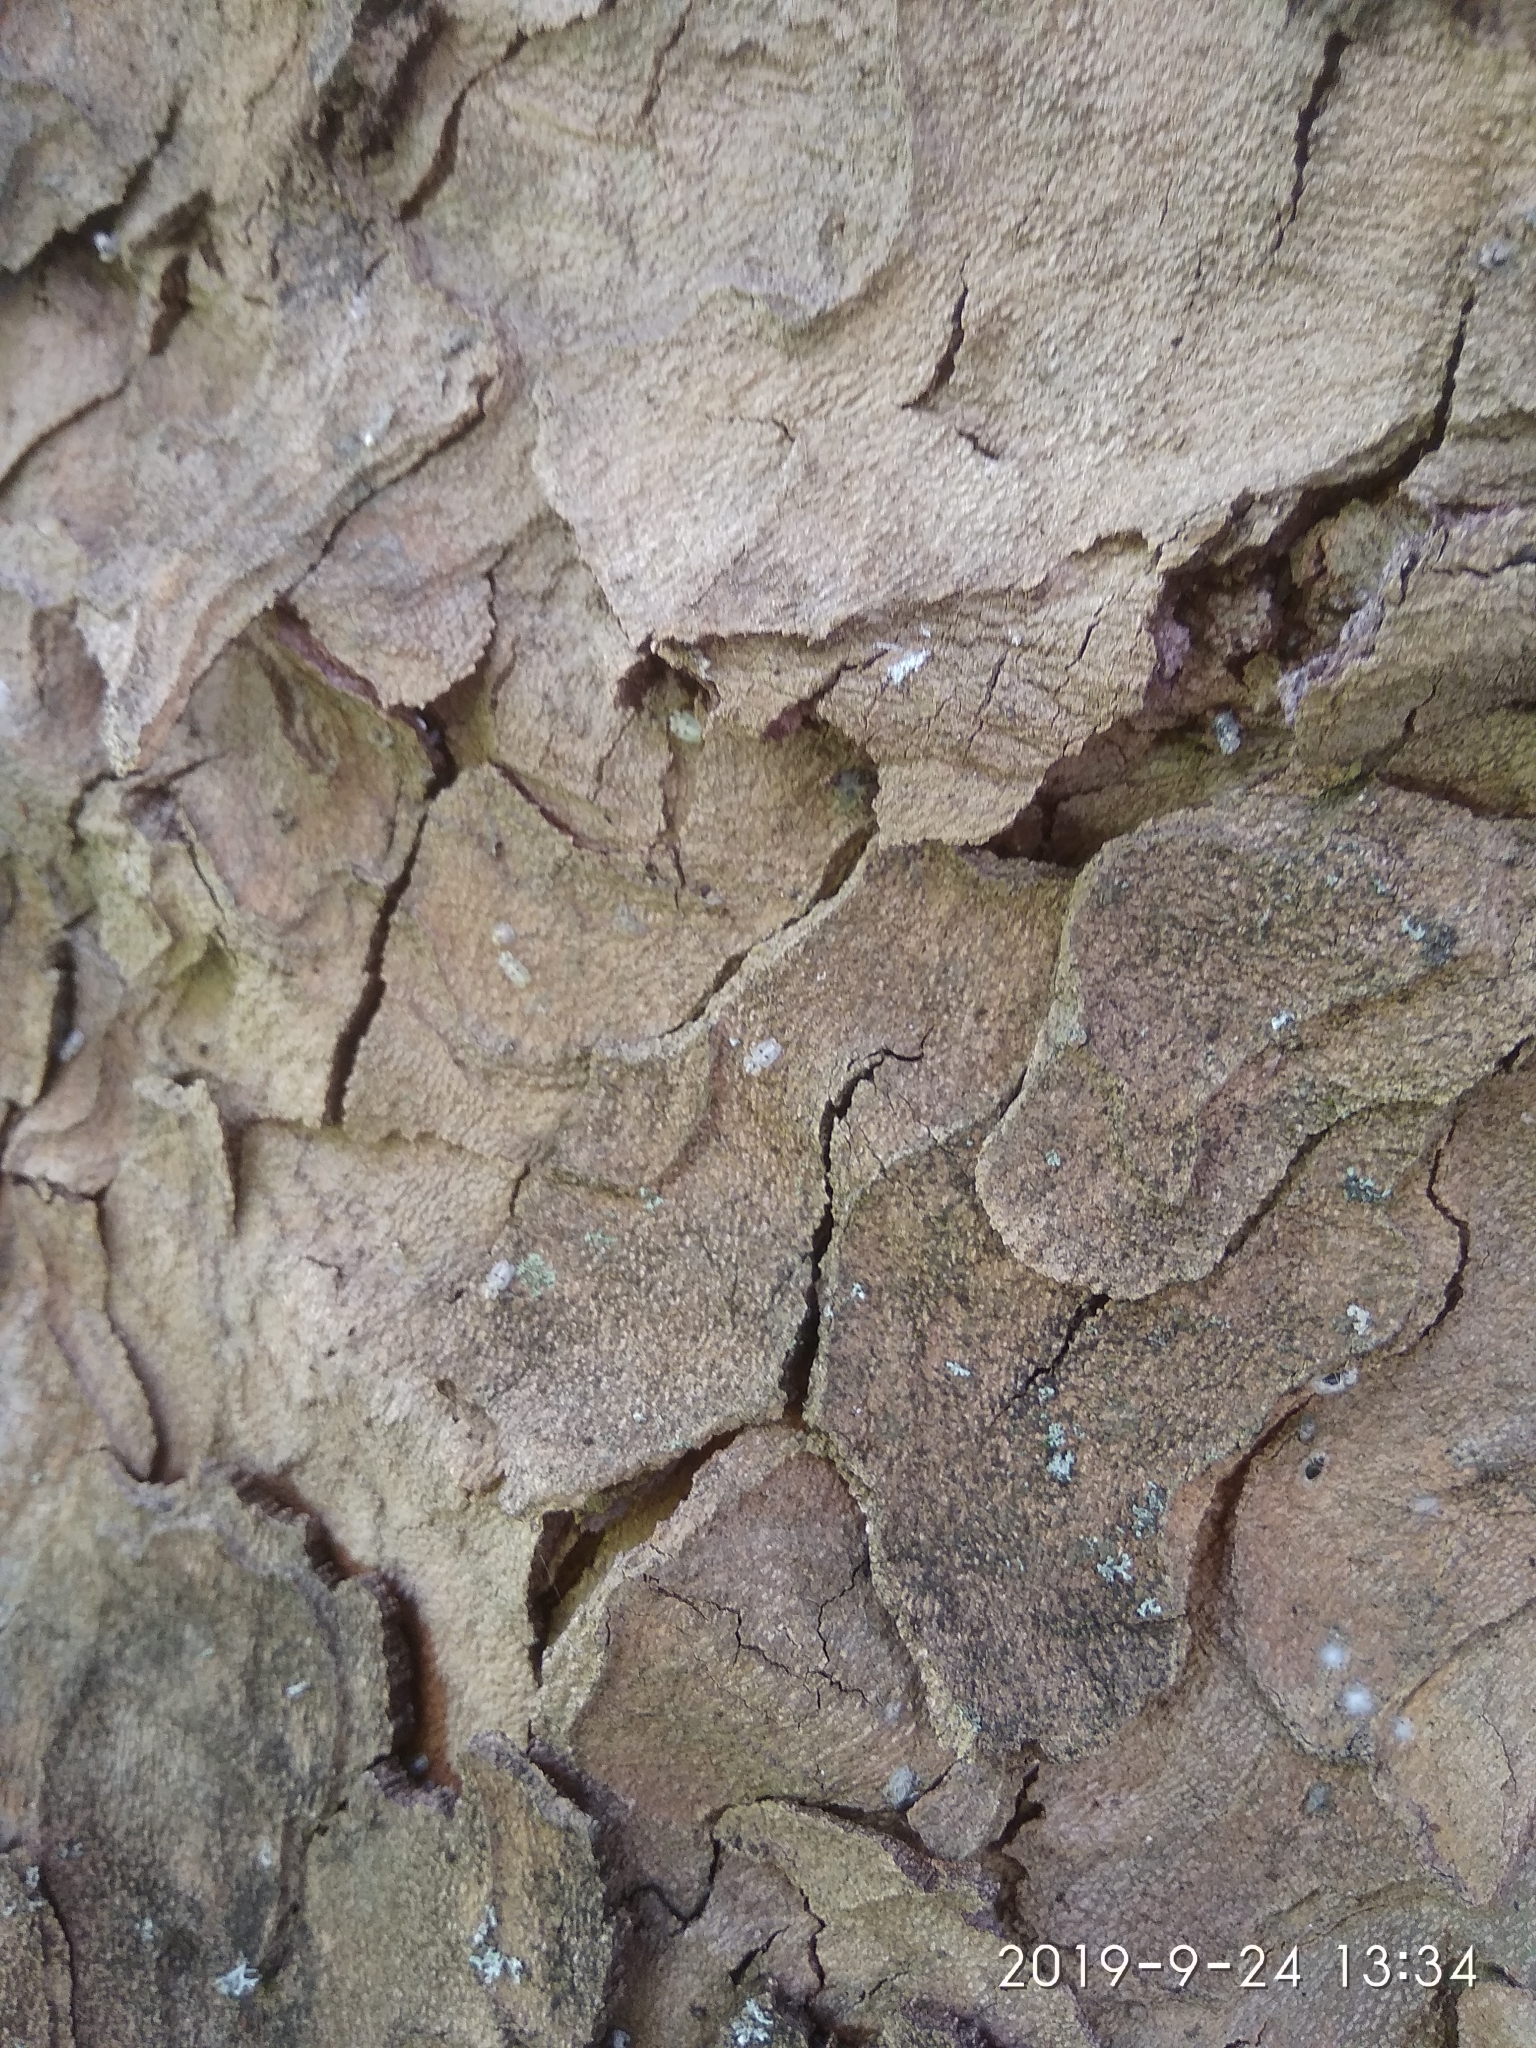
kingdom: Animalia
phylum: Arthropoda
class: Insecta
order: Hemiptera
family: Tingidae
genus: Corythucha
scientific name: Corythucha ciliata
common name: Sycamore lace bug
